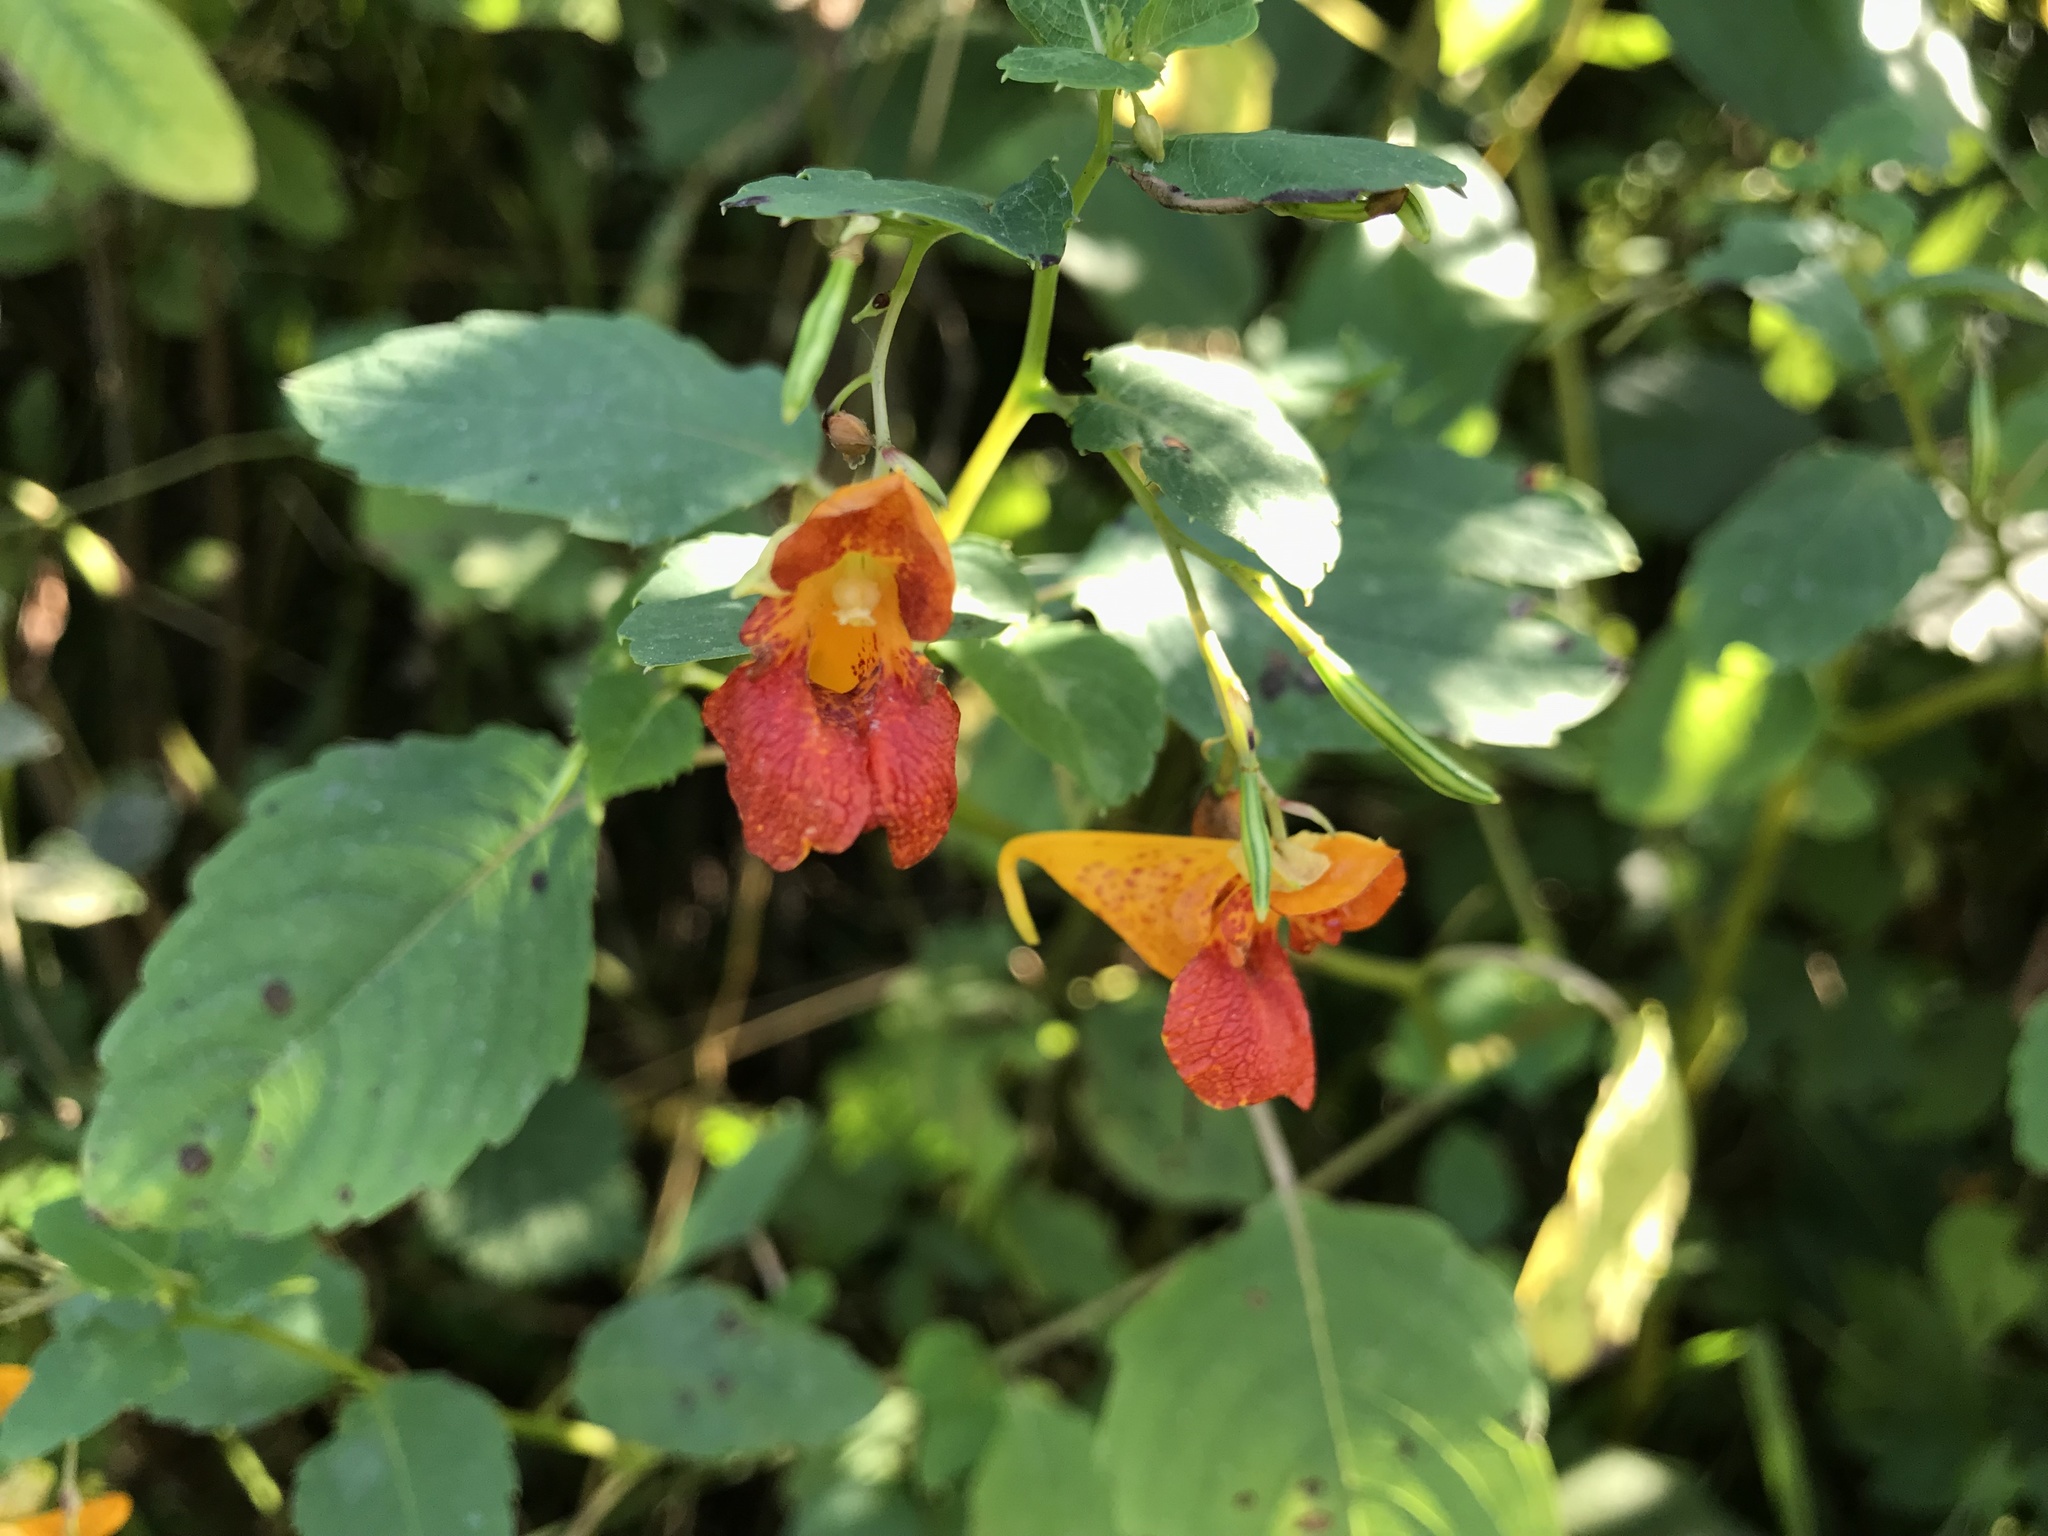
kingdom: Plantae
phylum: Tracheophyta
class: Magnoliopsida
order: Ericales
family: Balsaminaceae
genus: Impatiens
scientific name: Impatiens capensis
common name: Orange balsam
